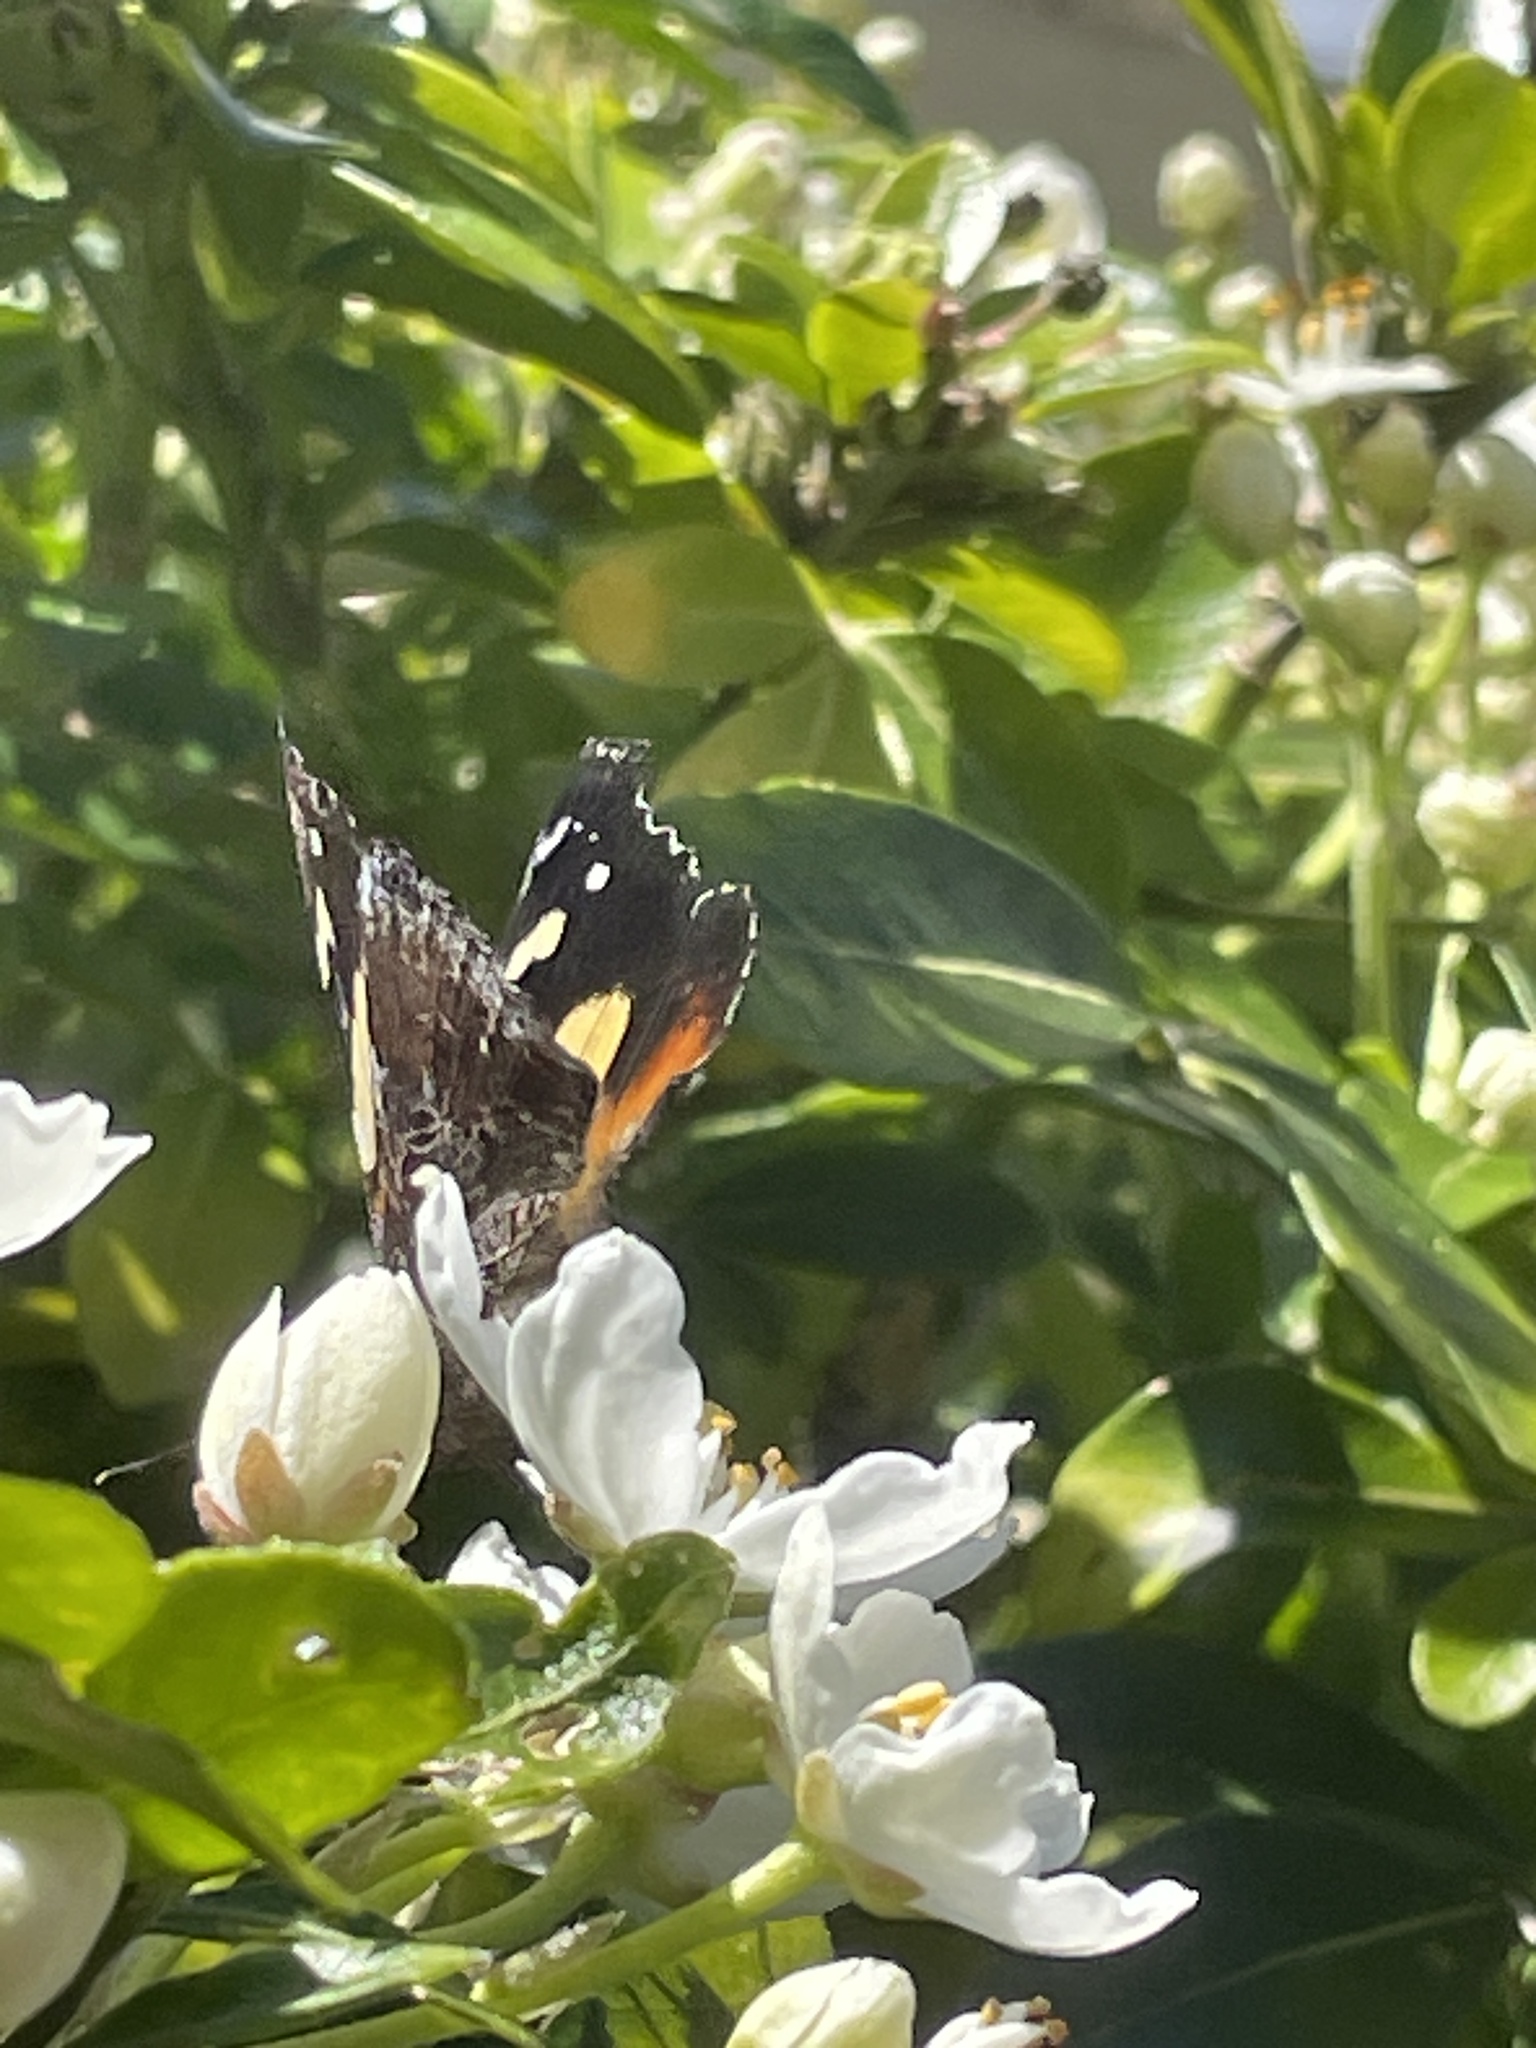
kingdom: Animalia
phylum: Arthropoda
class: Insecta
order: Lepidoptera
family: Nymphalidae
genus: Vanessa
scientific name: Vanessa itea
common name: Yellow admiral
